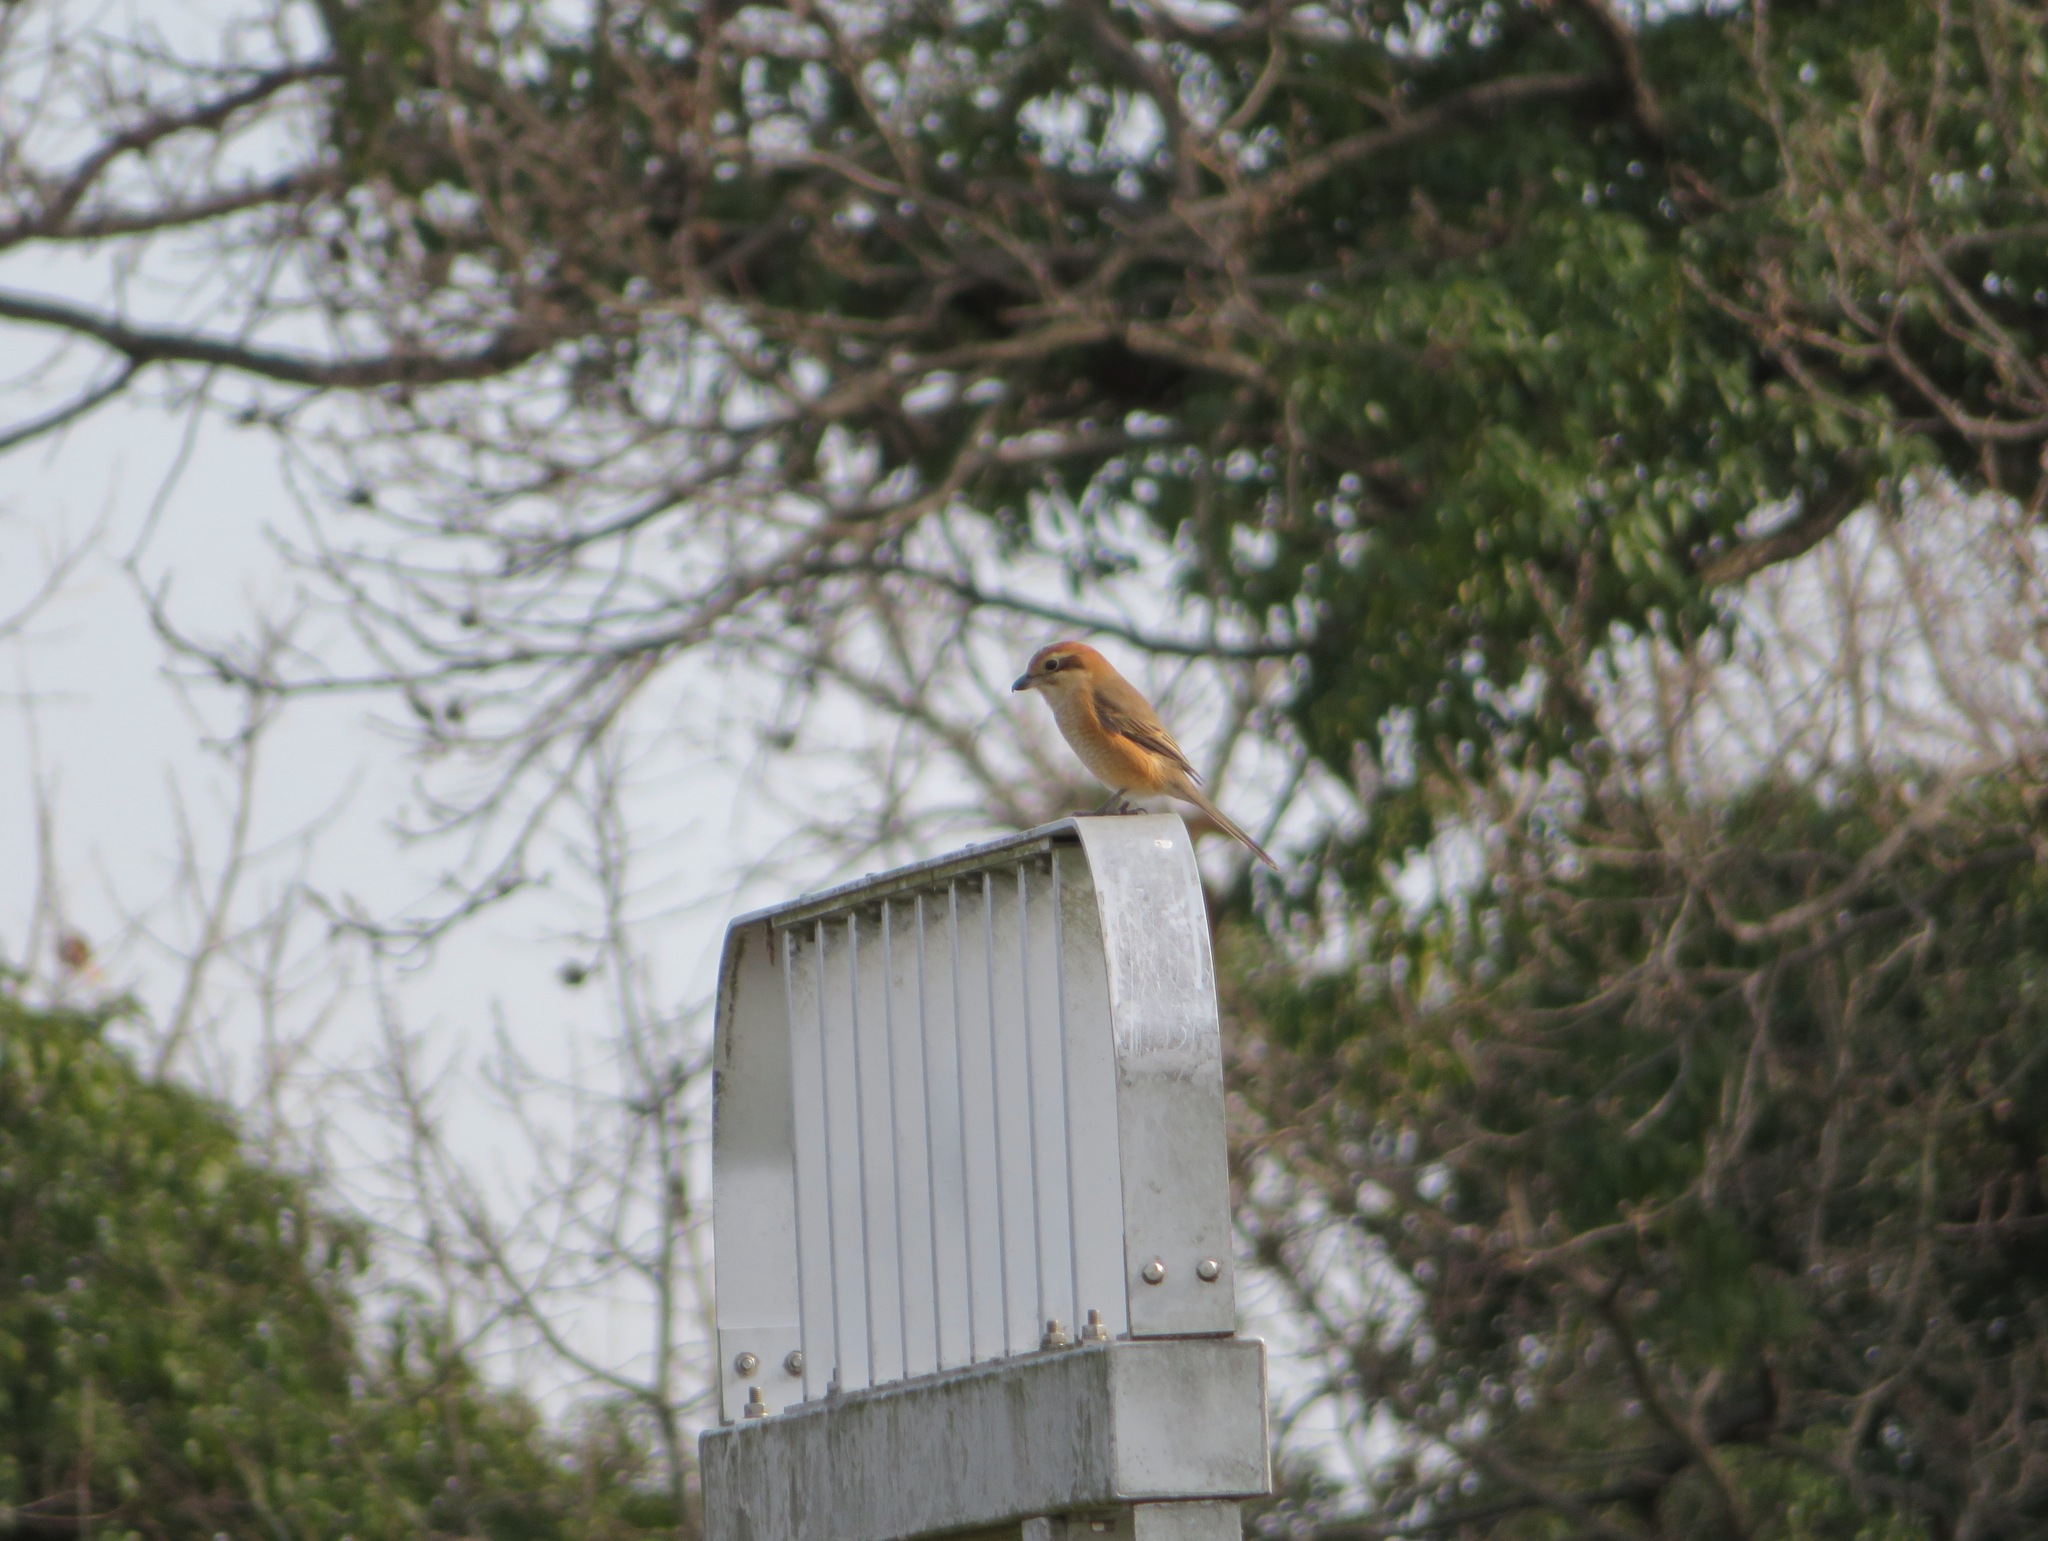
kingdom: Animalia
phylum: Chordata
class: Aves
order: Passeriformes
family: Laniidae
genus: Lanius
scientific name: Lanius bucephalus
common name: Bull-headed shrike
